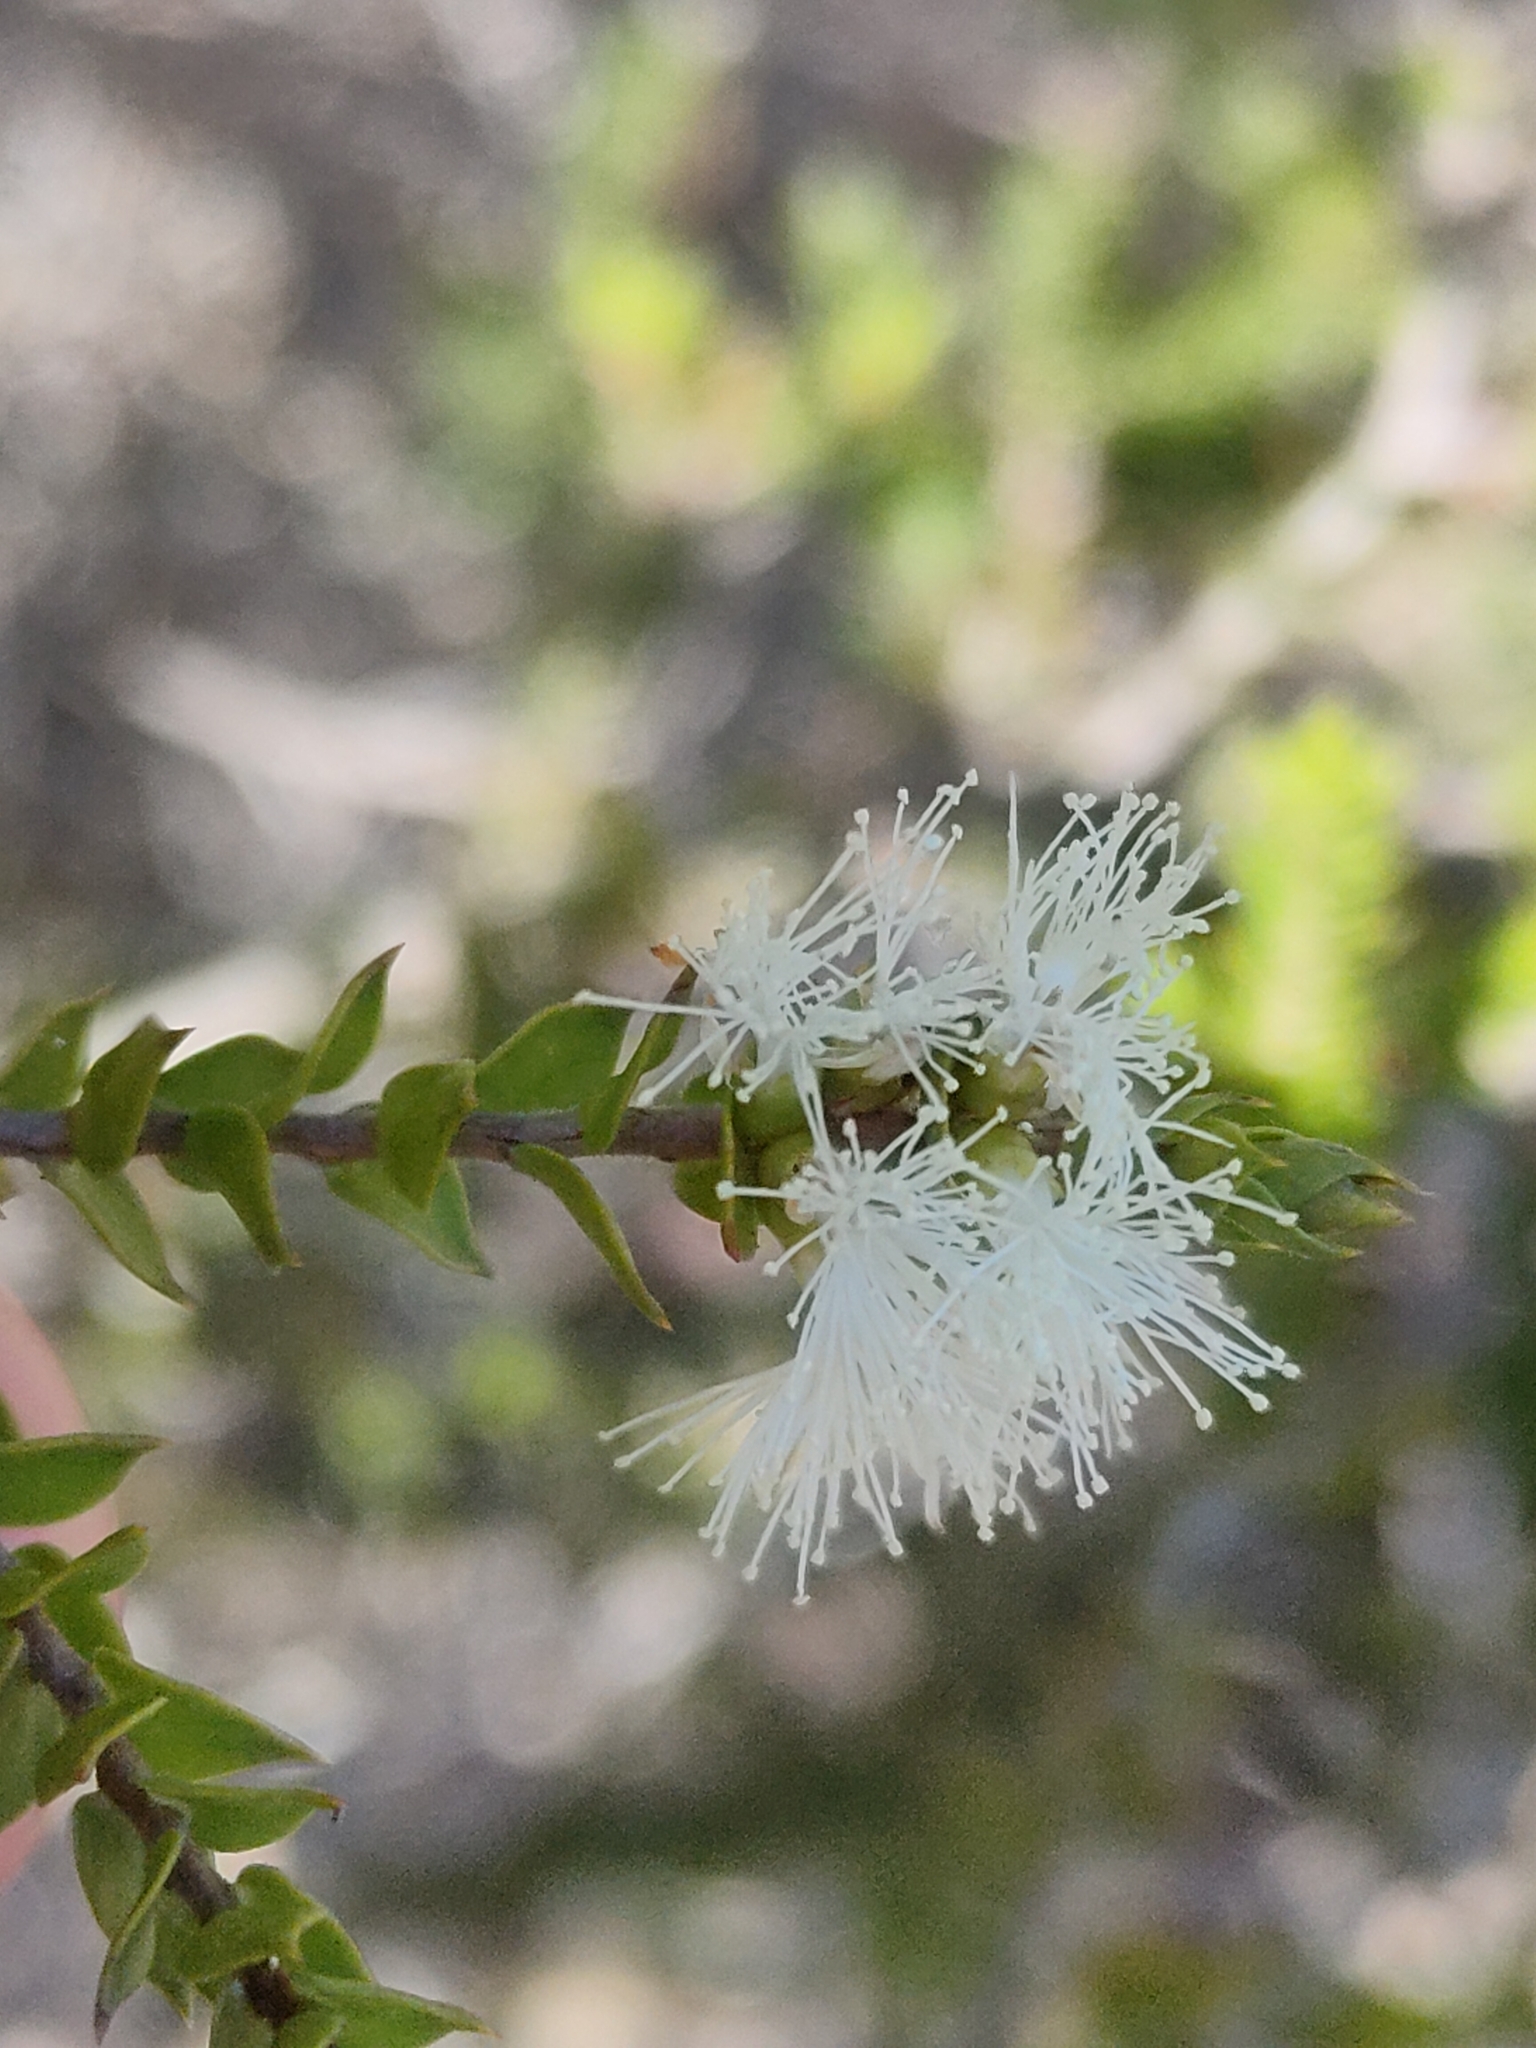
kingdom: Plantae
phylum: Tracheophyta
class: Magnoliopsida
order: Myrtales
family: Myrtaceae
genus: Melaleuca
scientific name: Melaleuca styphelioides
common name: Prickly paperbark
